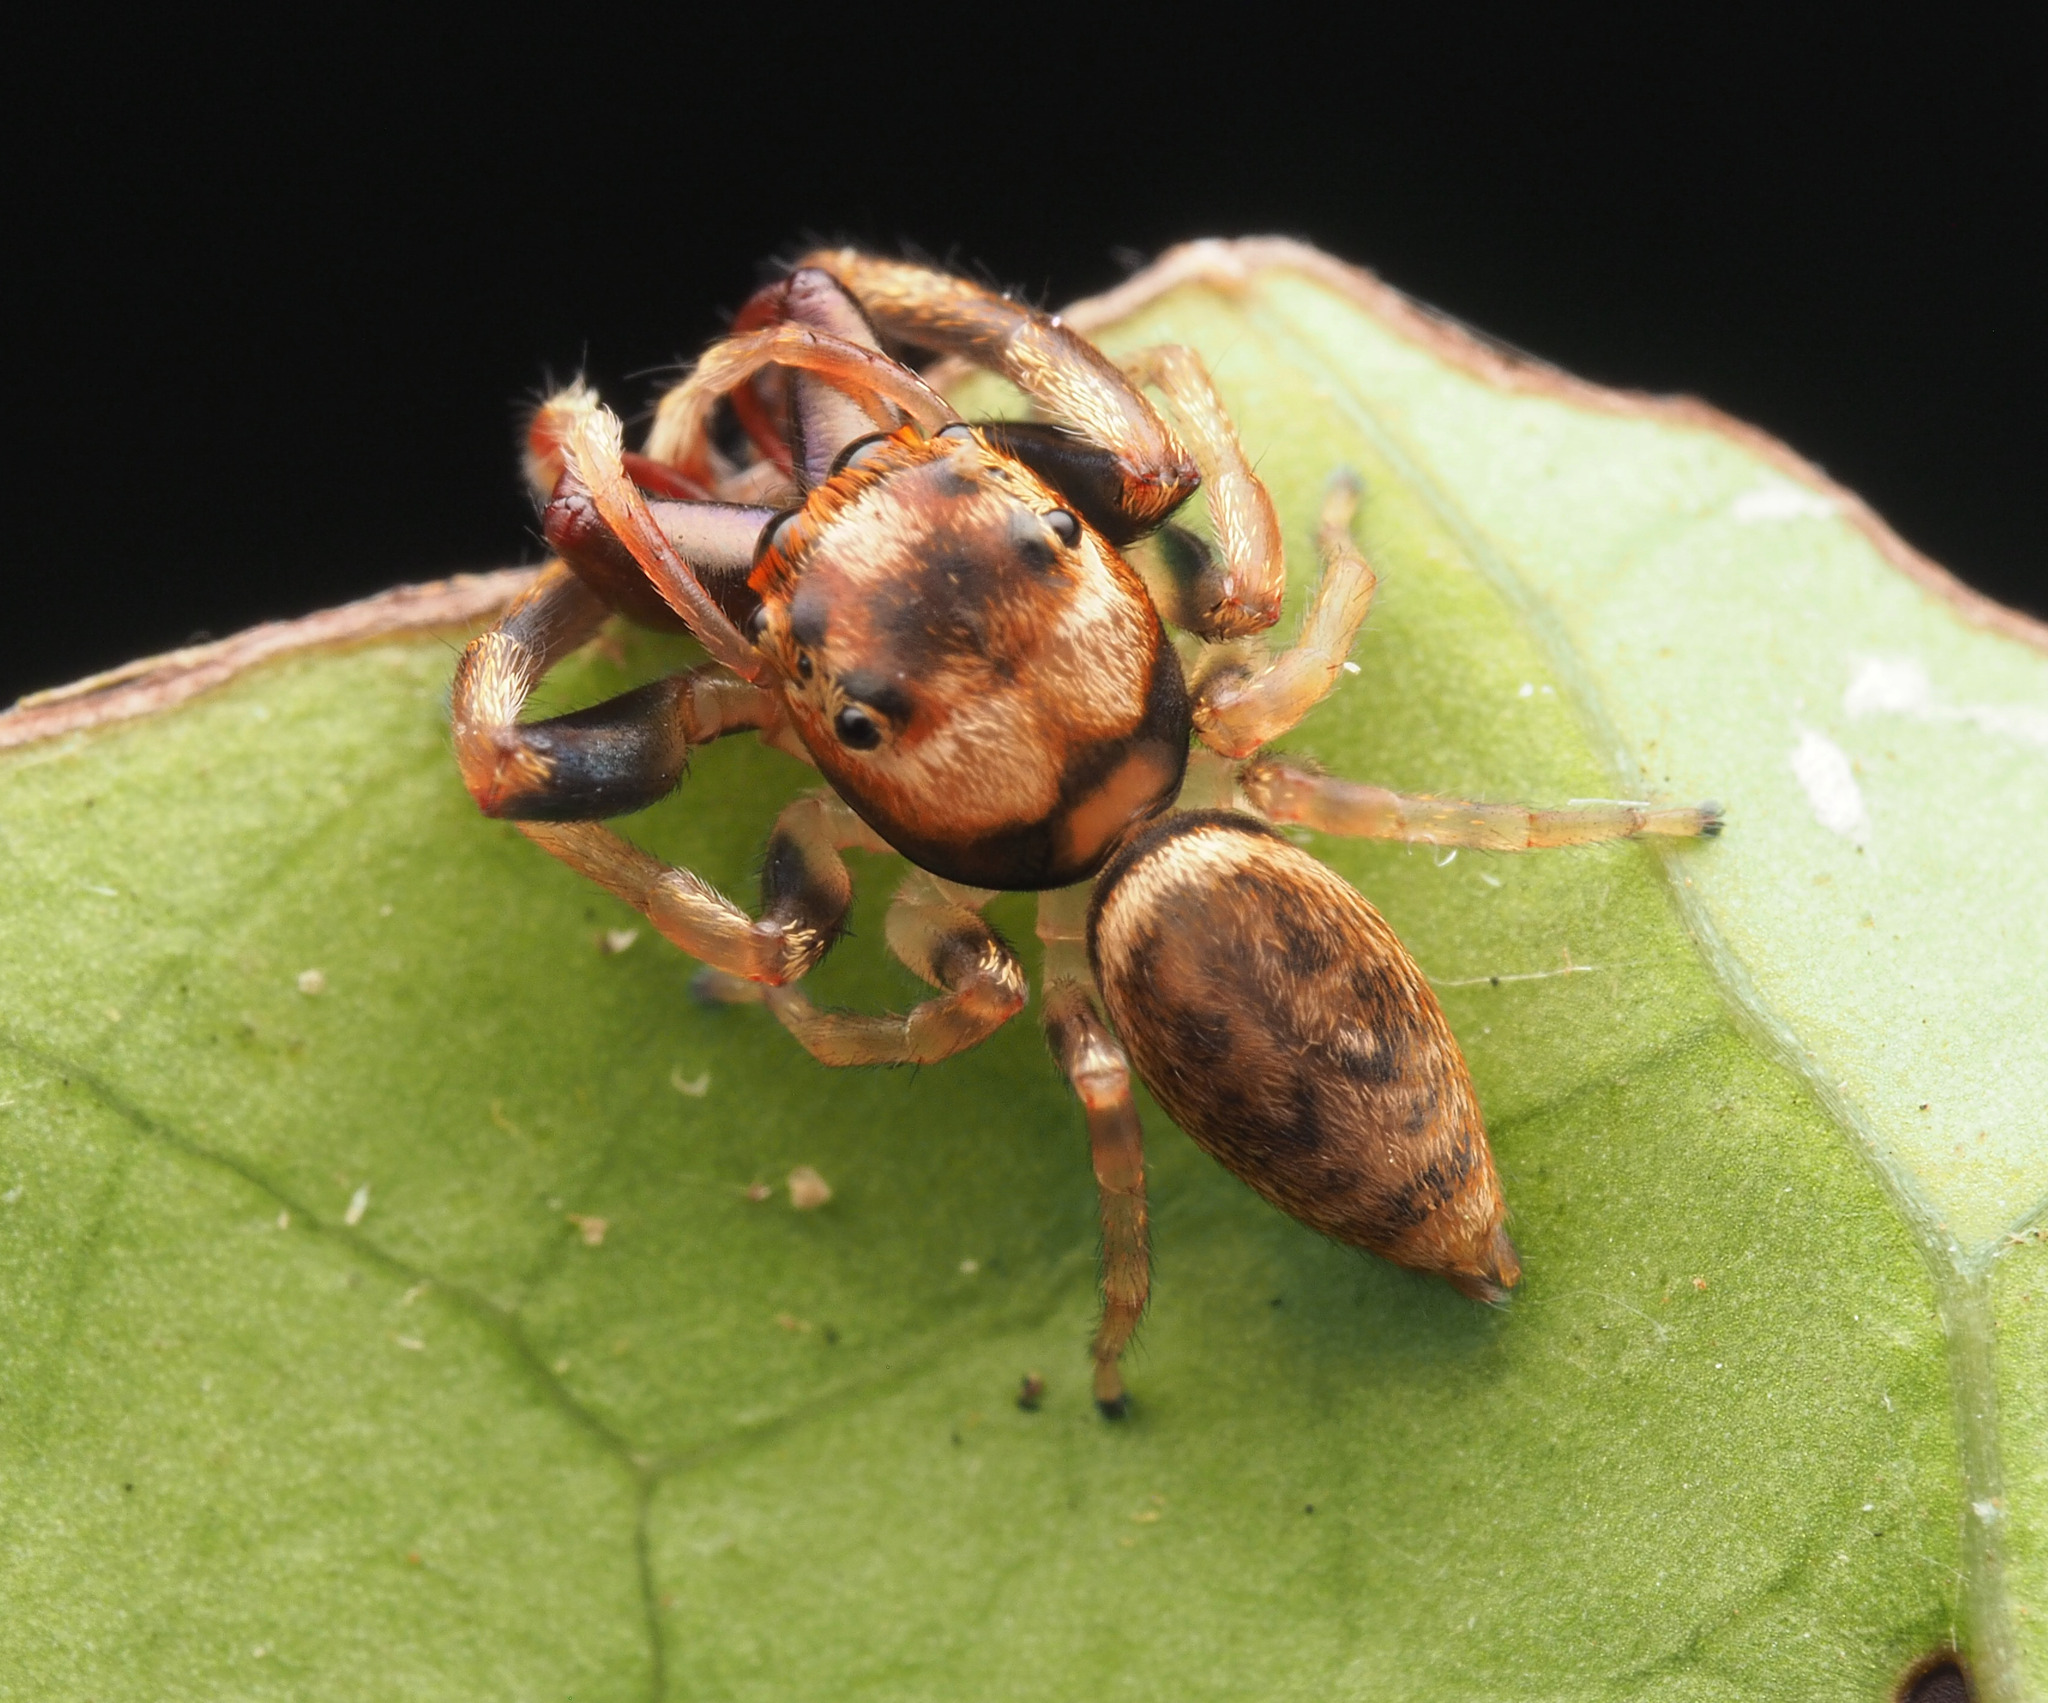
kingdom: Animalia
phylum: Arthropoda
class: Arachnida
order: Araneae
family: Salticidae
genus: Opisthoncus
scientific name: Opisthoncus
